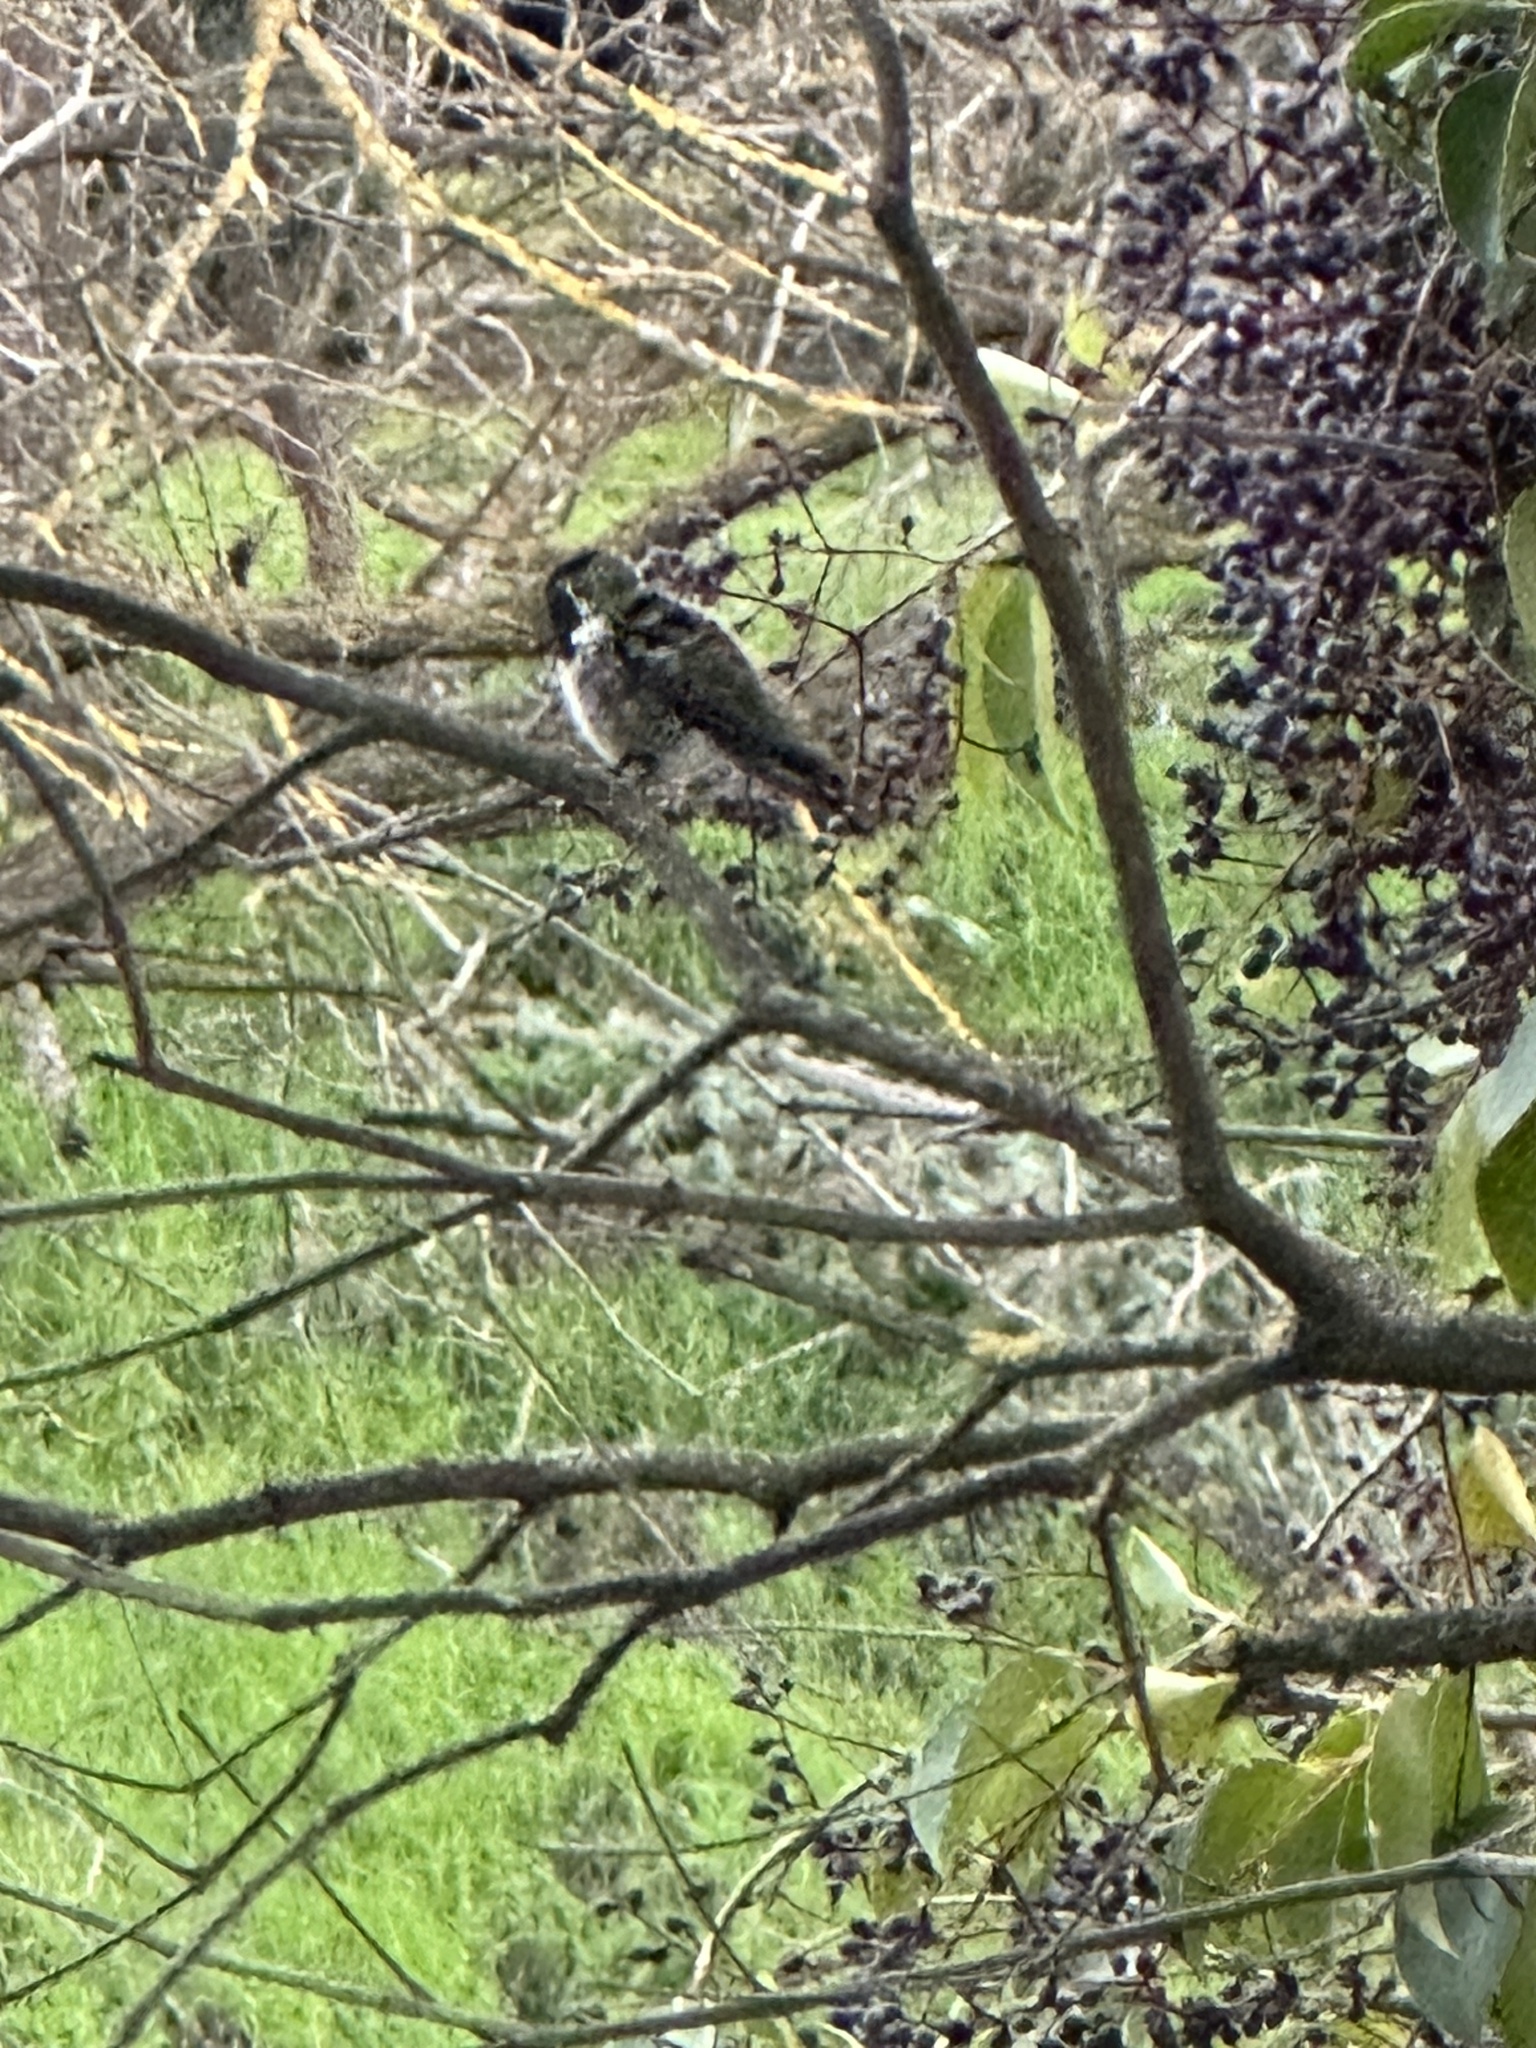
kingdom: Animalia
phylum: Chordata
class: Aves
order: Apodiformes
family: Trochilidae
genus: Calypte
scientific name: Calypte anna
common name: Anna's hummingbird
